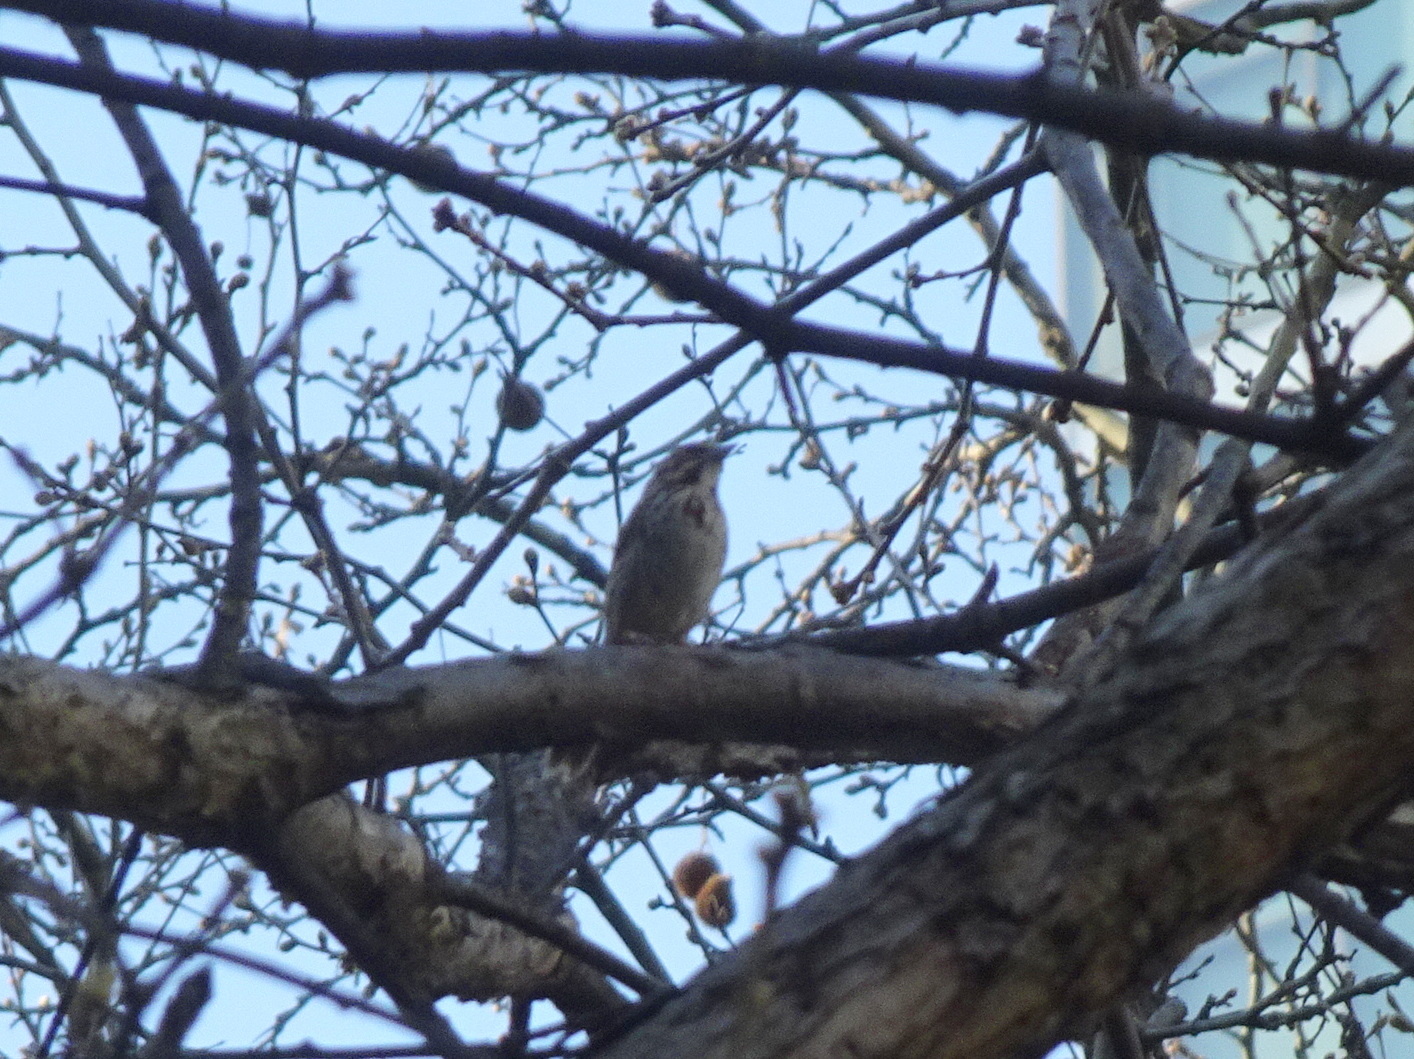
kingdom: Animalia
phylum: Chordata
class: Aves
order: Passeriformes
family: Passerellidae
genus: Melospiza
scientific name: Melospiza melodia
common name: Song sparrow
